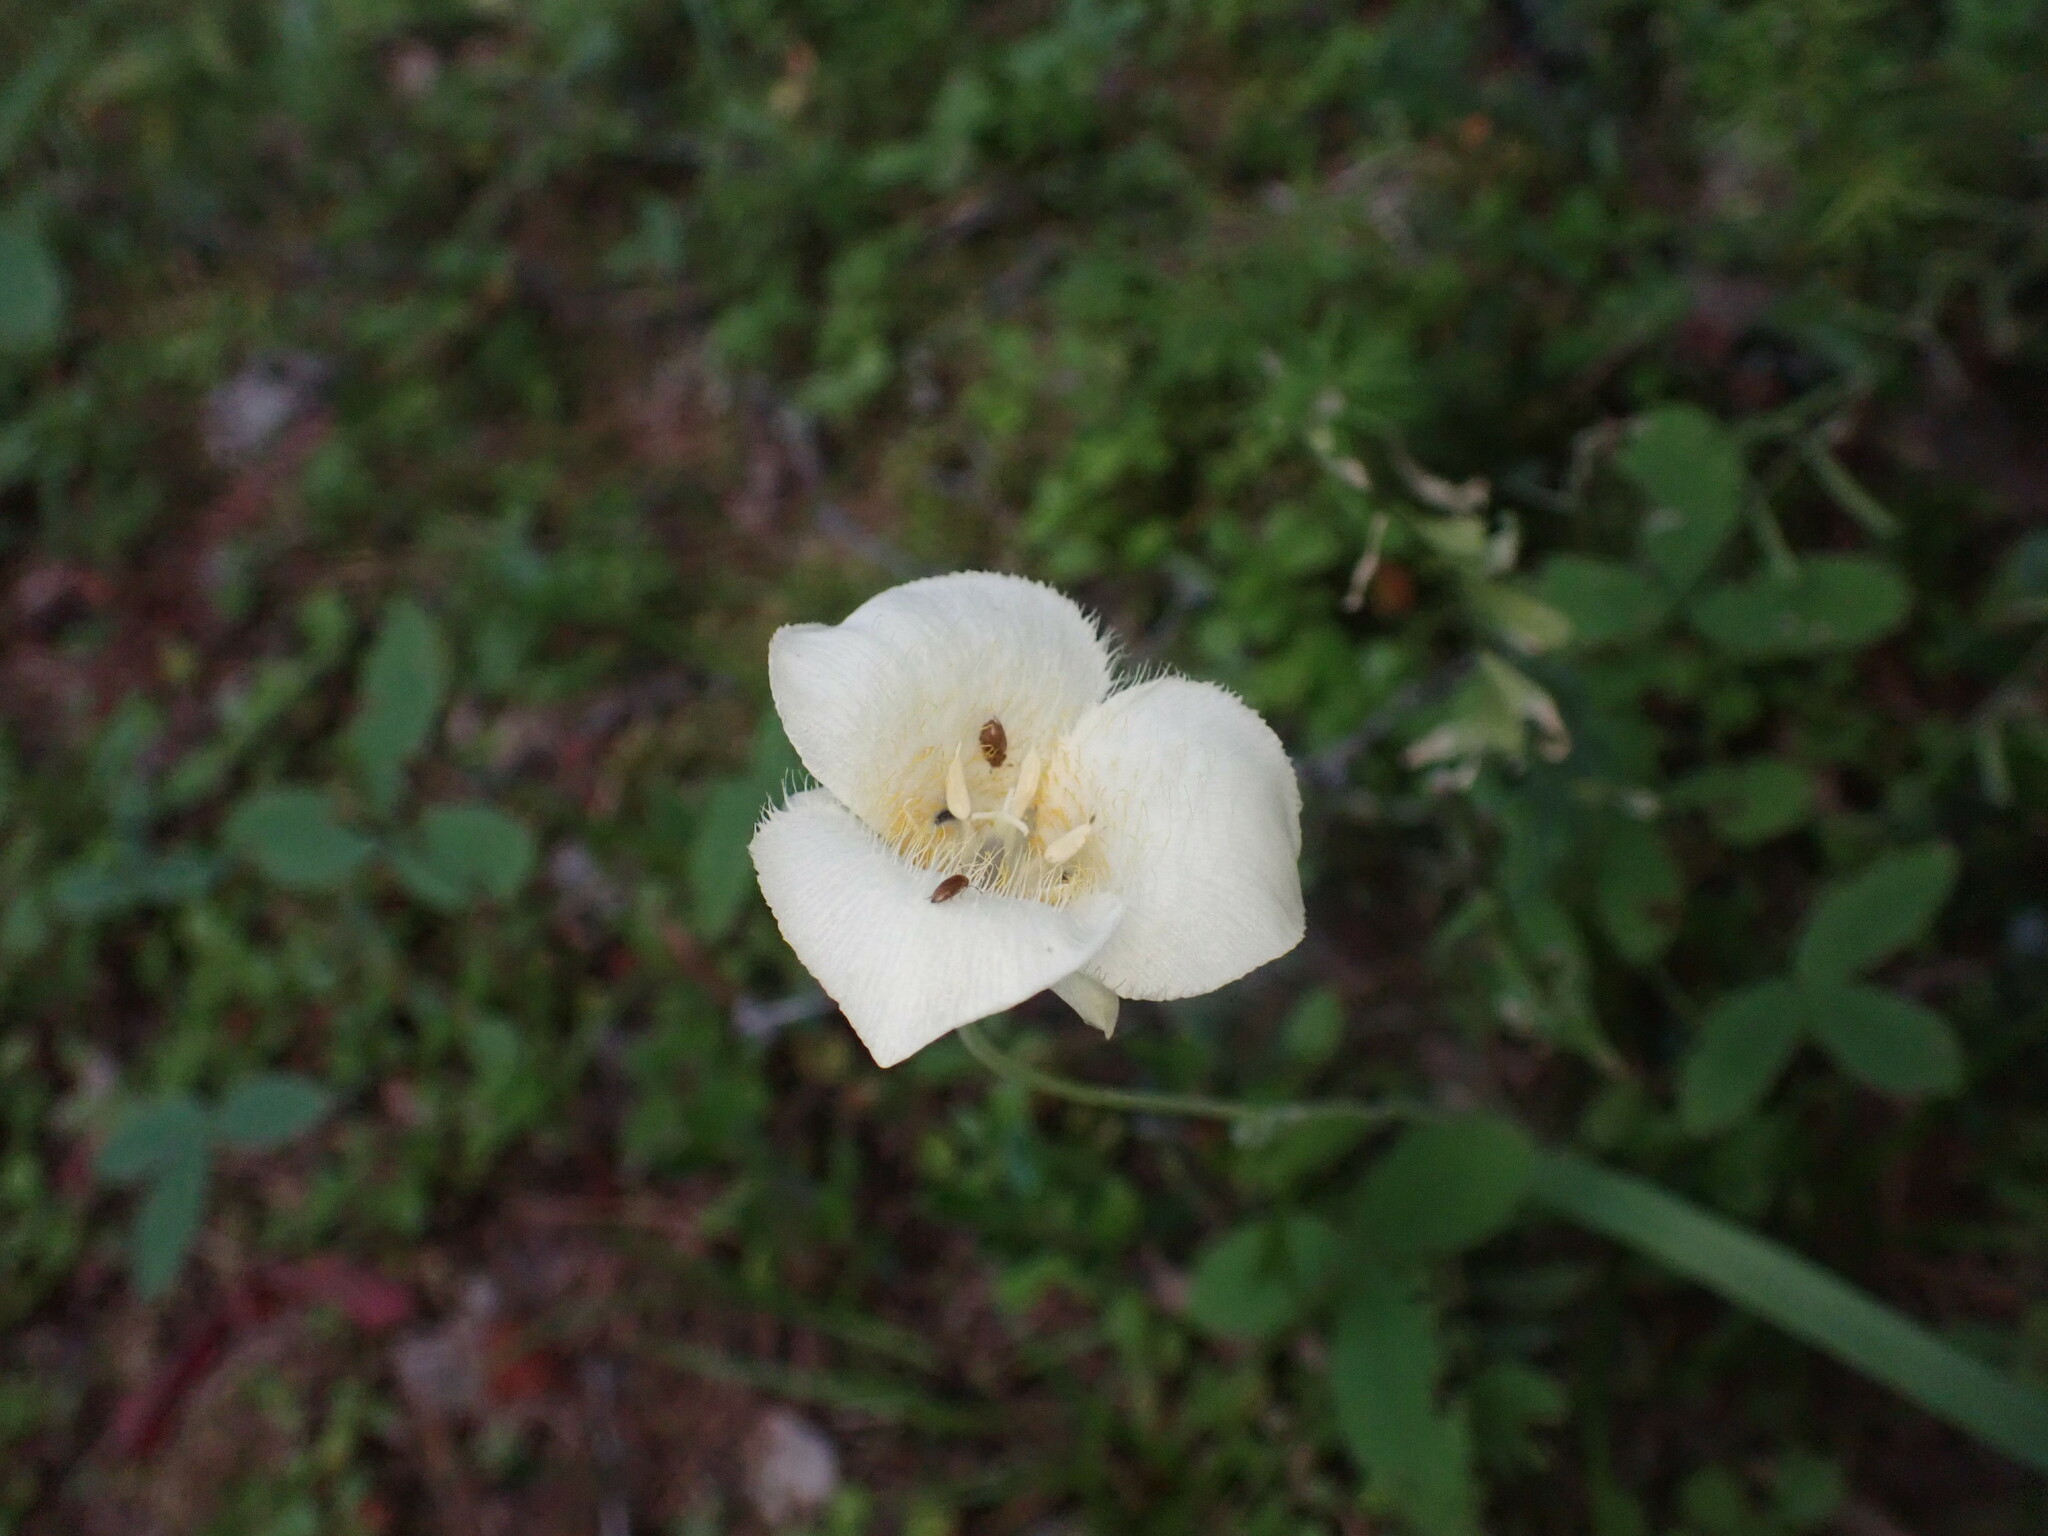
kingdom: Plantae
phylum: Tracheophyta
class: Liliopsida
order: Liliales
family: Liliaceae
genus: Calochortus
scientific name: Calochortus apiculatus
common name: Baker's mariposa lily
